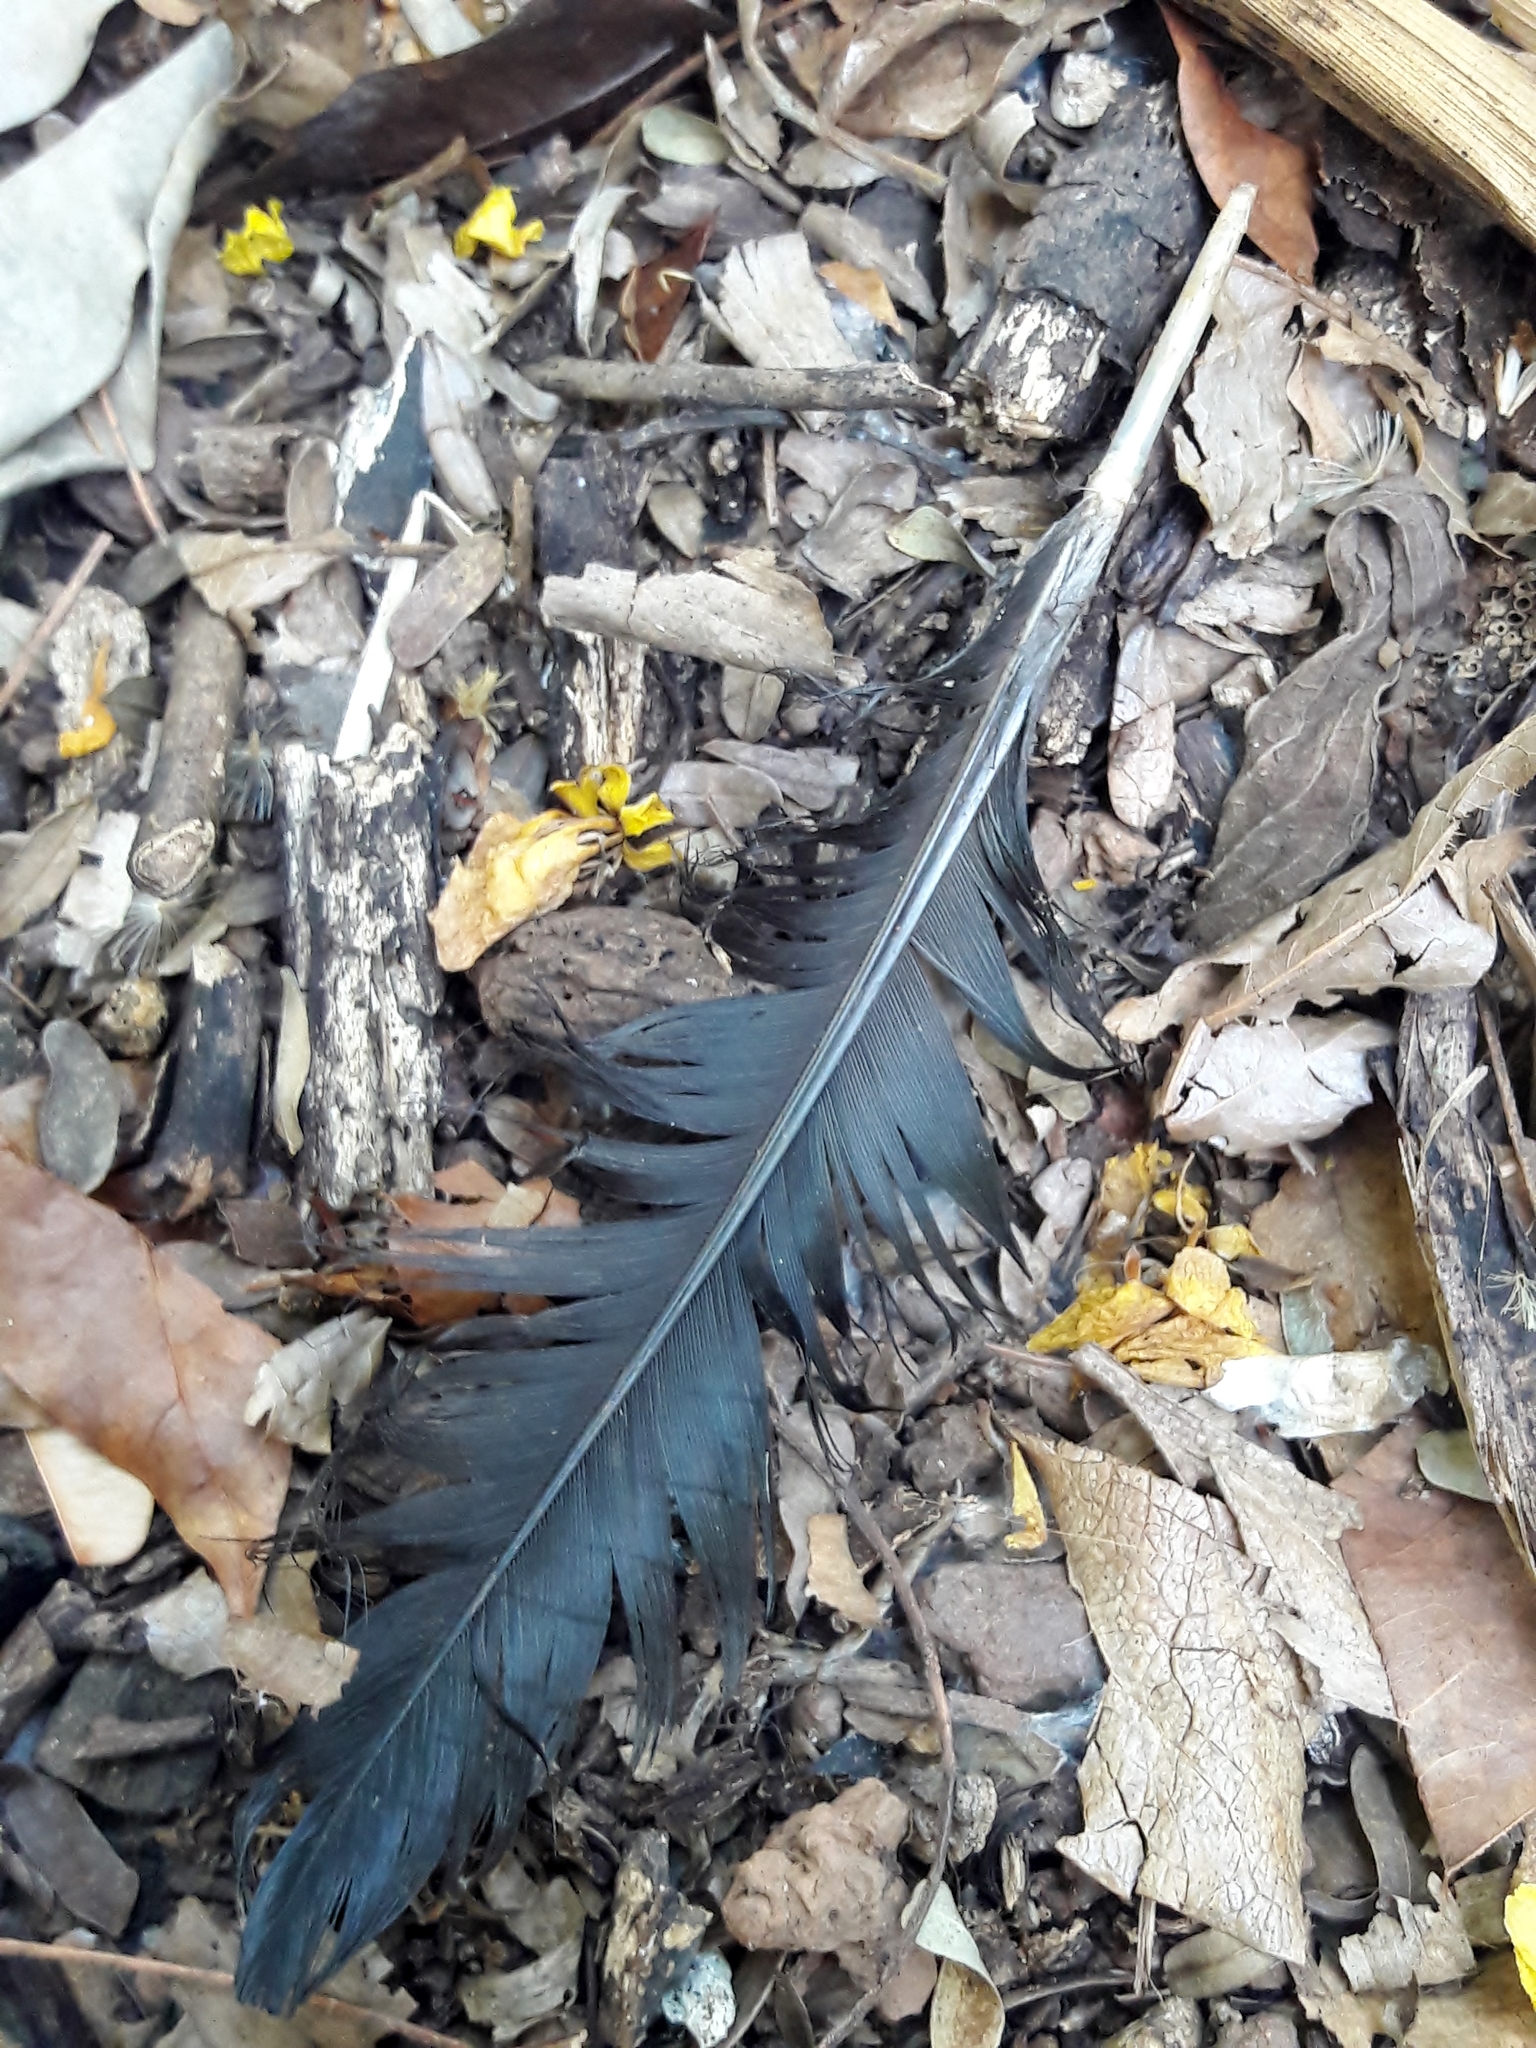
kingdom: Animalia
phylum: Chordata
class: Aves
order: Pelecaniformes
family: Threskiornithidae
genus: Mesembrinibis
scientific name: Mesembrinibis cayennensis
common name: Green ibis
